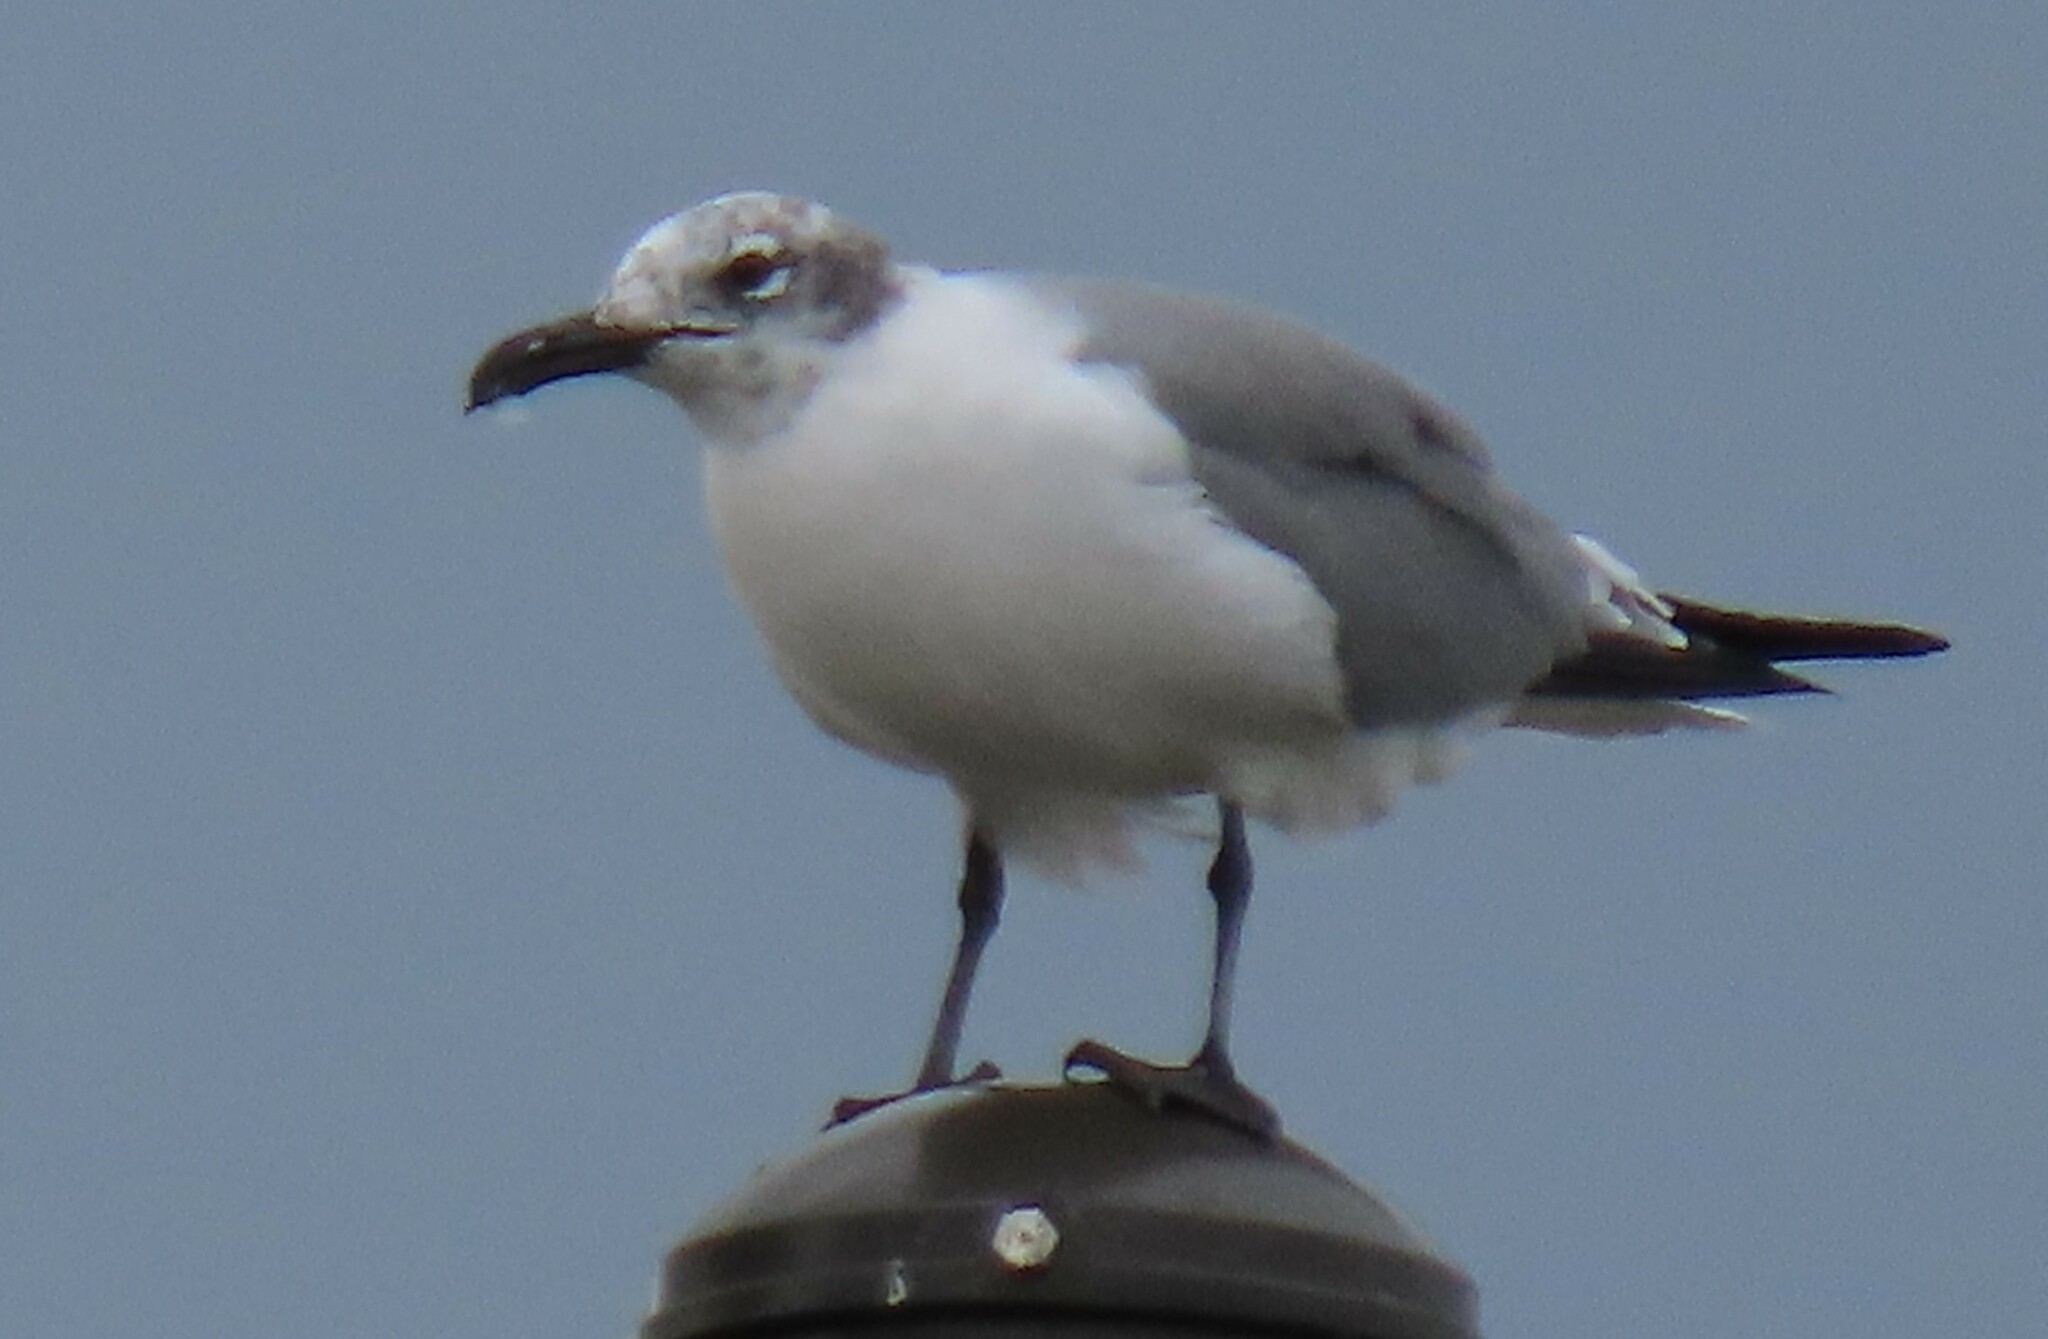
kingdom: Animalia
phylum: Chordata
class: Aves
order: Charadriiformes
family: Laridae
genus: Leucophaeus
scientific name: Leucophaeus atricilla
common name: Laughing gull
